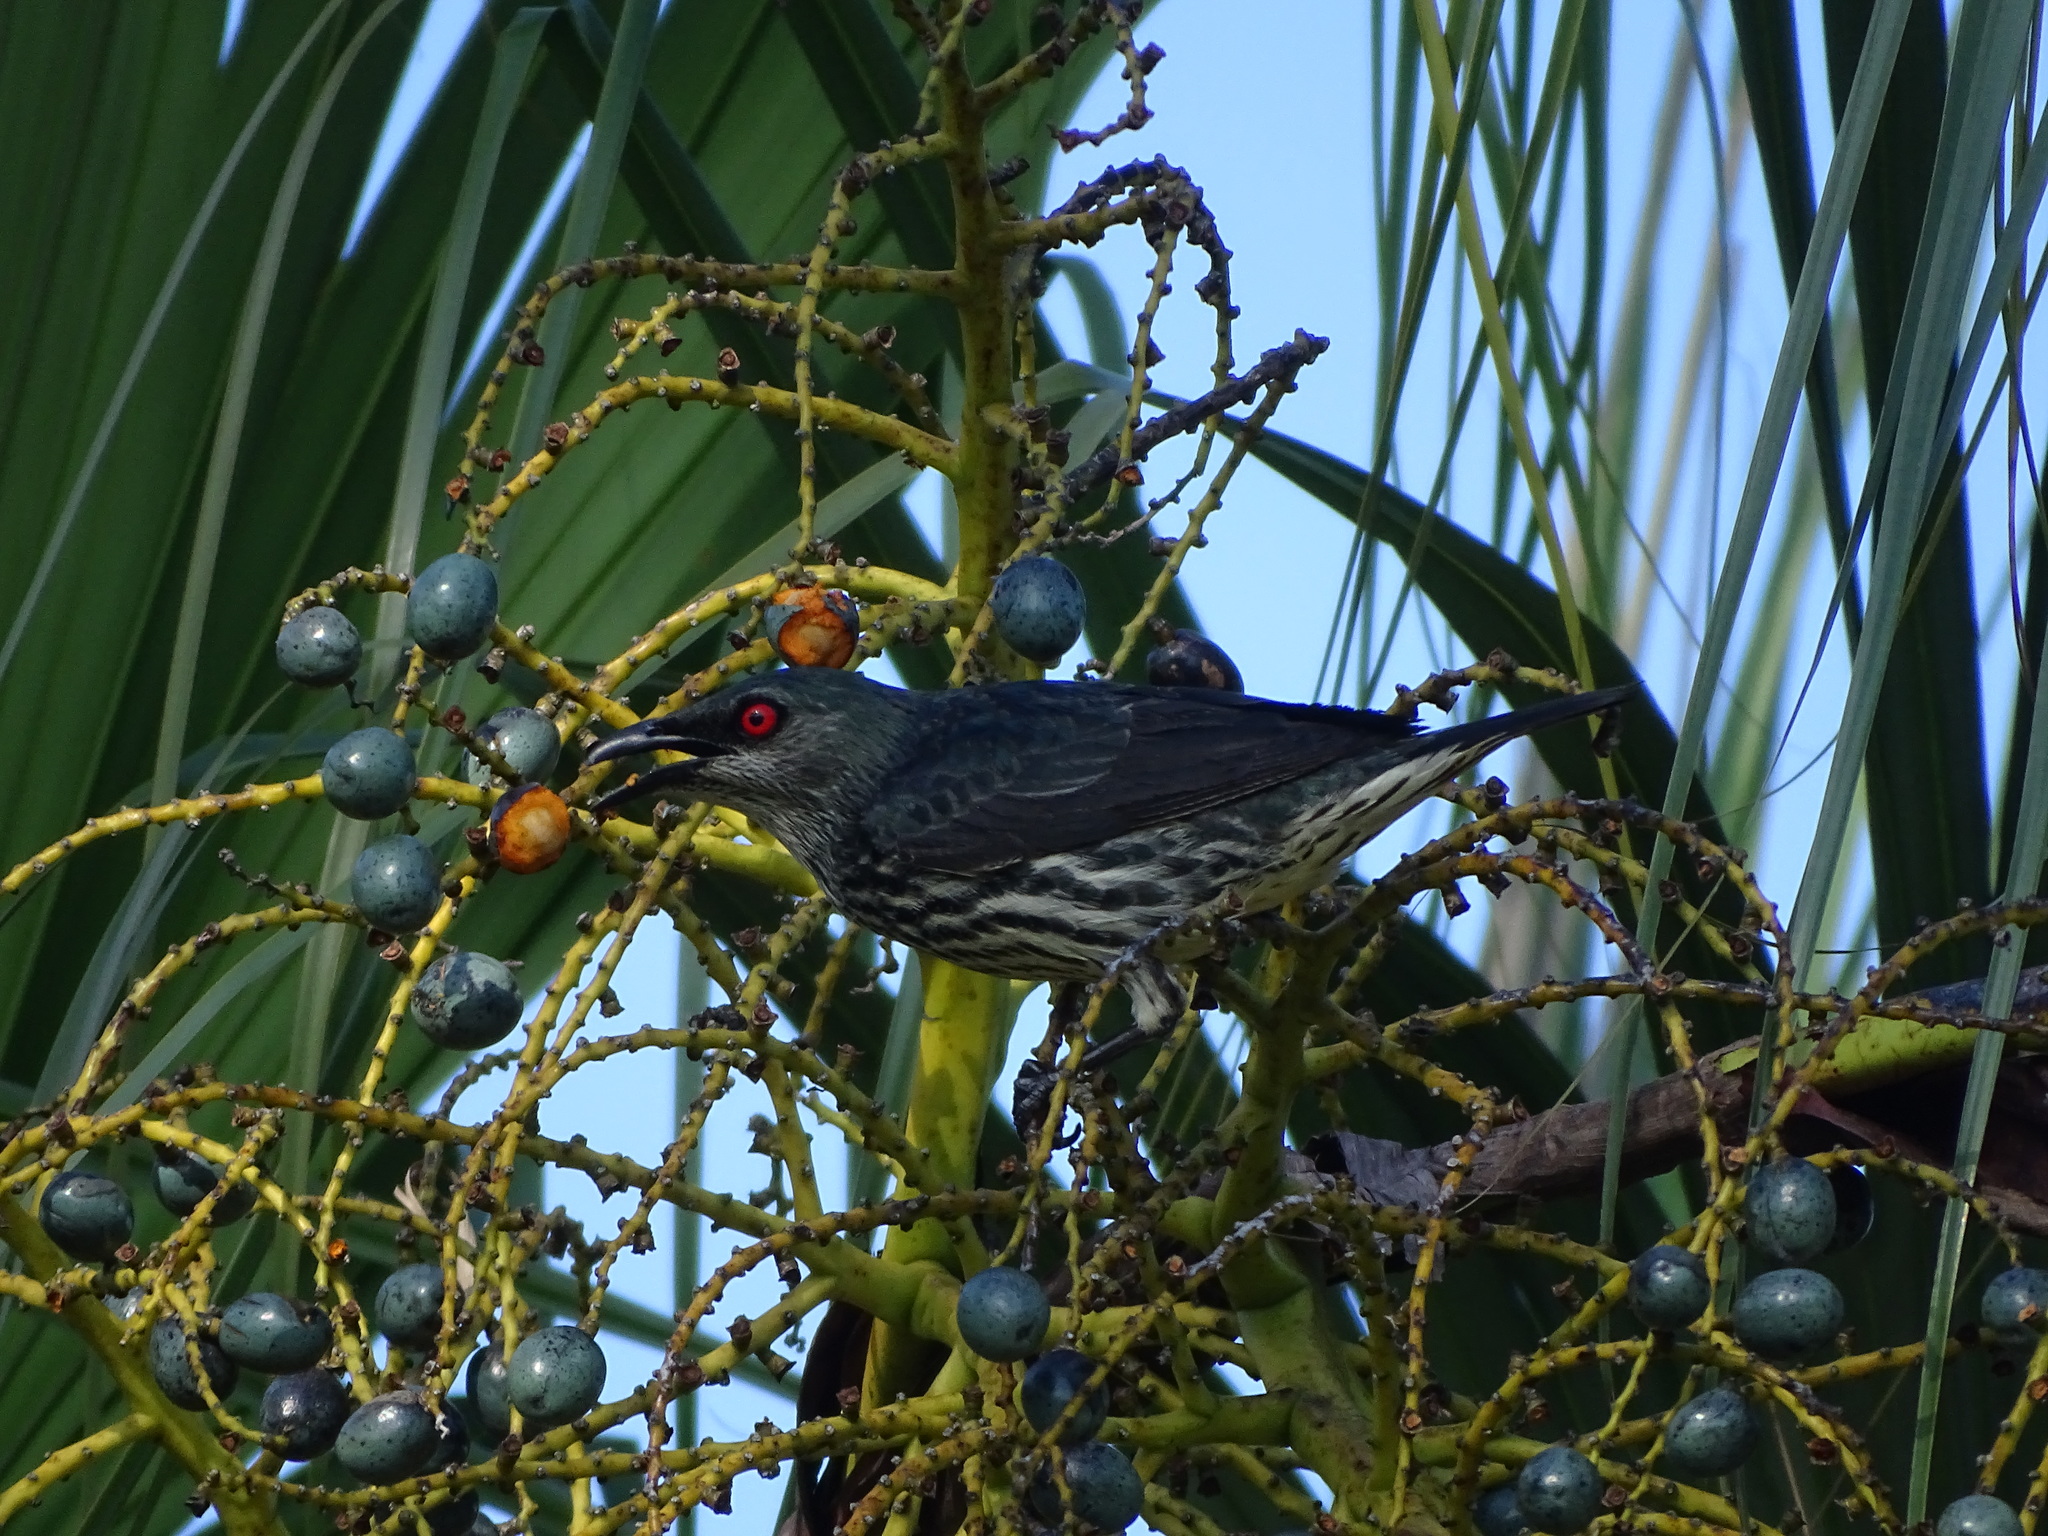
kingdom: Animalia
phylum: Chordata
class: Aves
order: Passeriformes
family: Sturnidae
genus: Aplonis
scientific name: Aplonis panayensis
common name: Asian glossy starling
